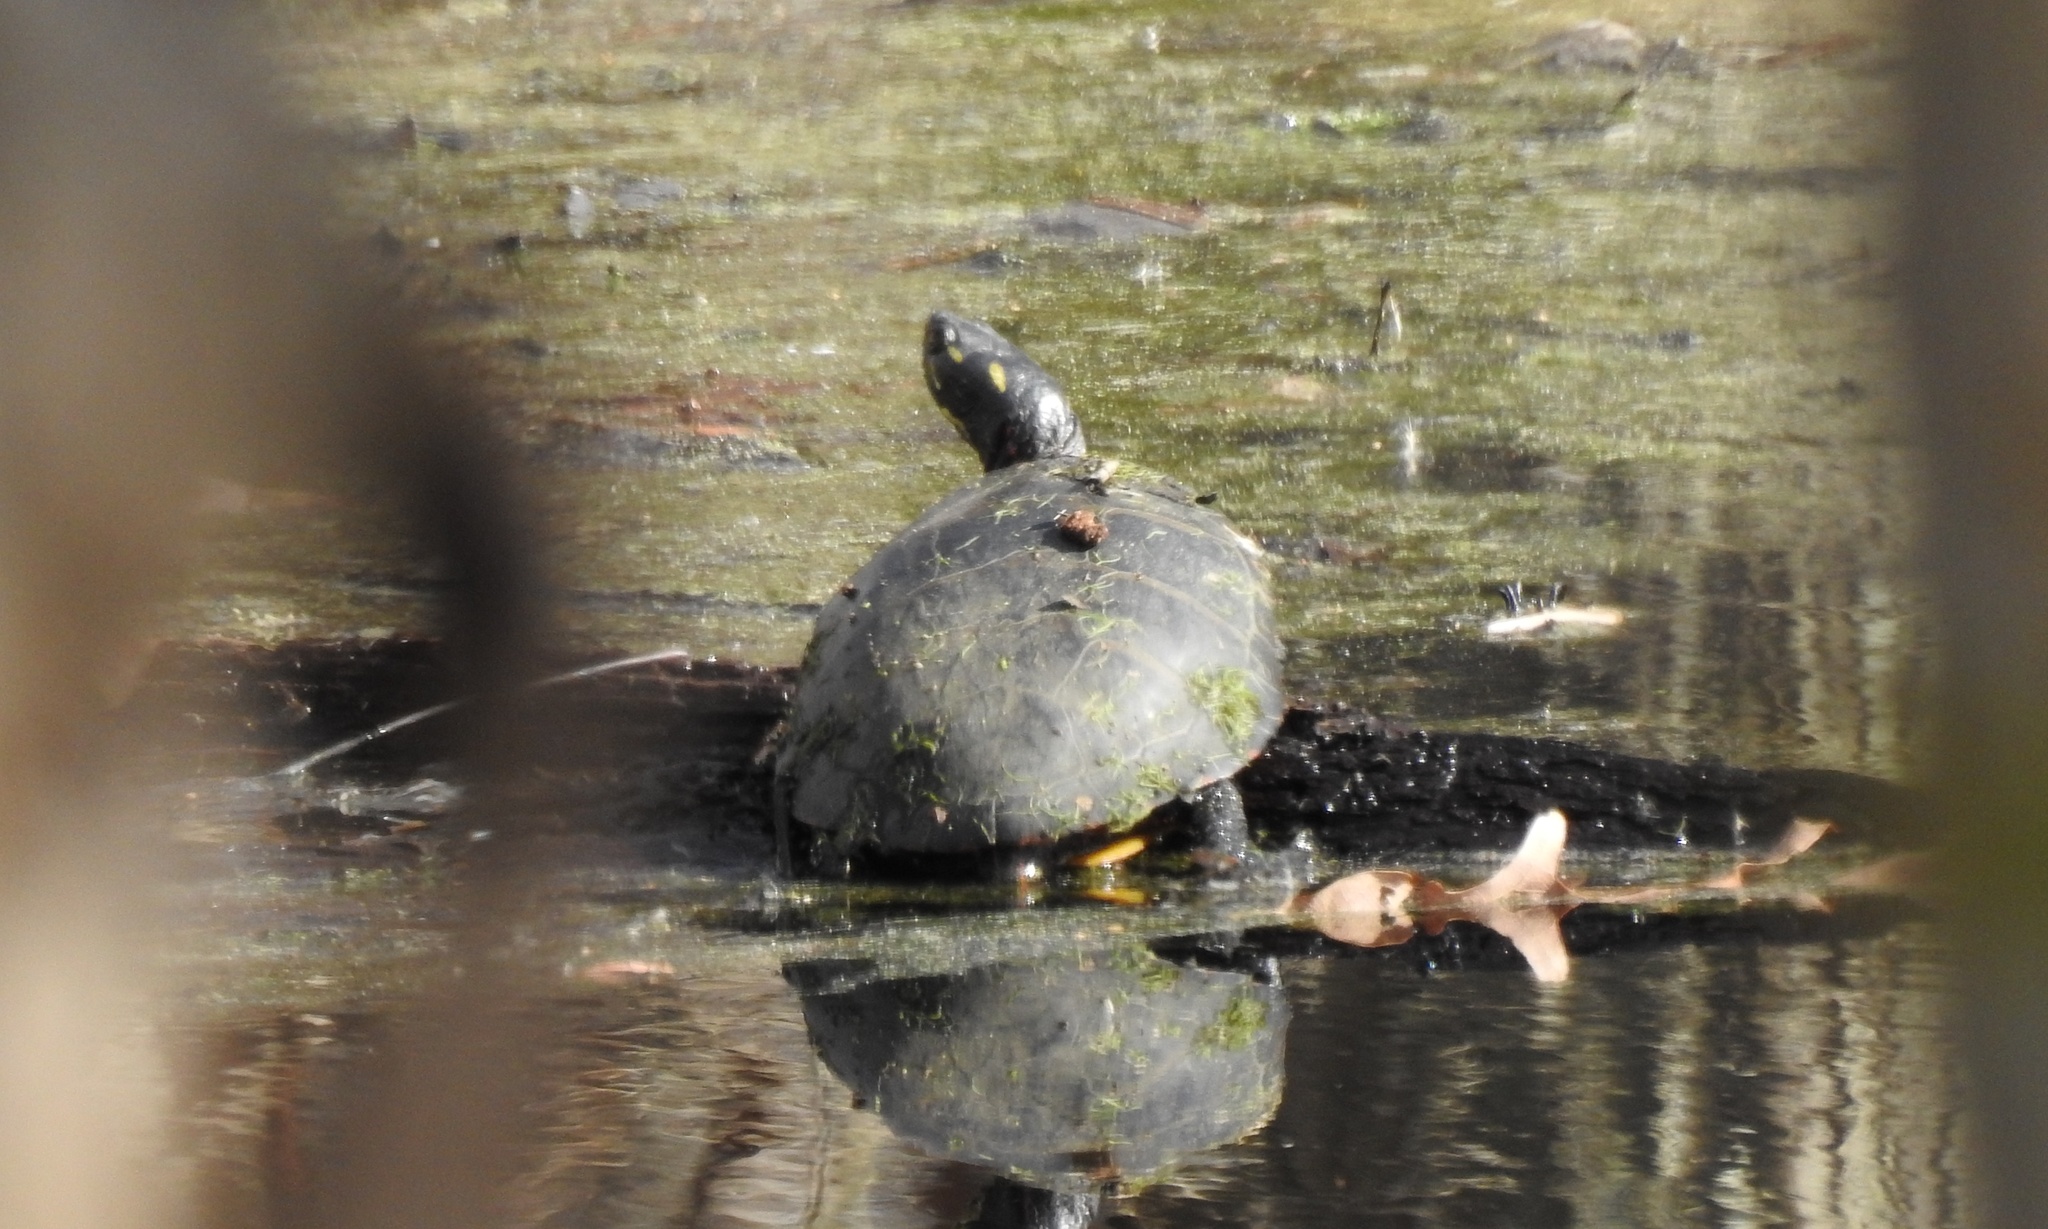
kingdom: Animalia
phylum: Chordata
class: Testudines
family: Emydidae
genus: Chrysemys
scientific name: Chrysemys picta
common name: Painted turtle
